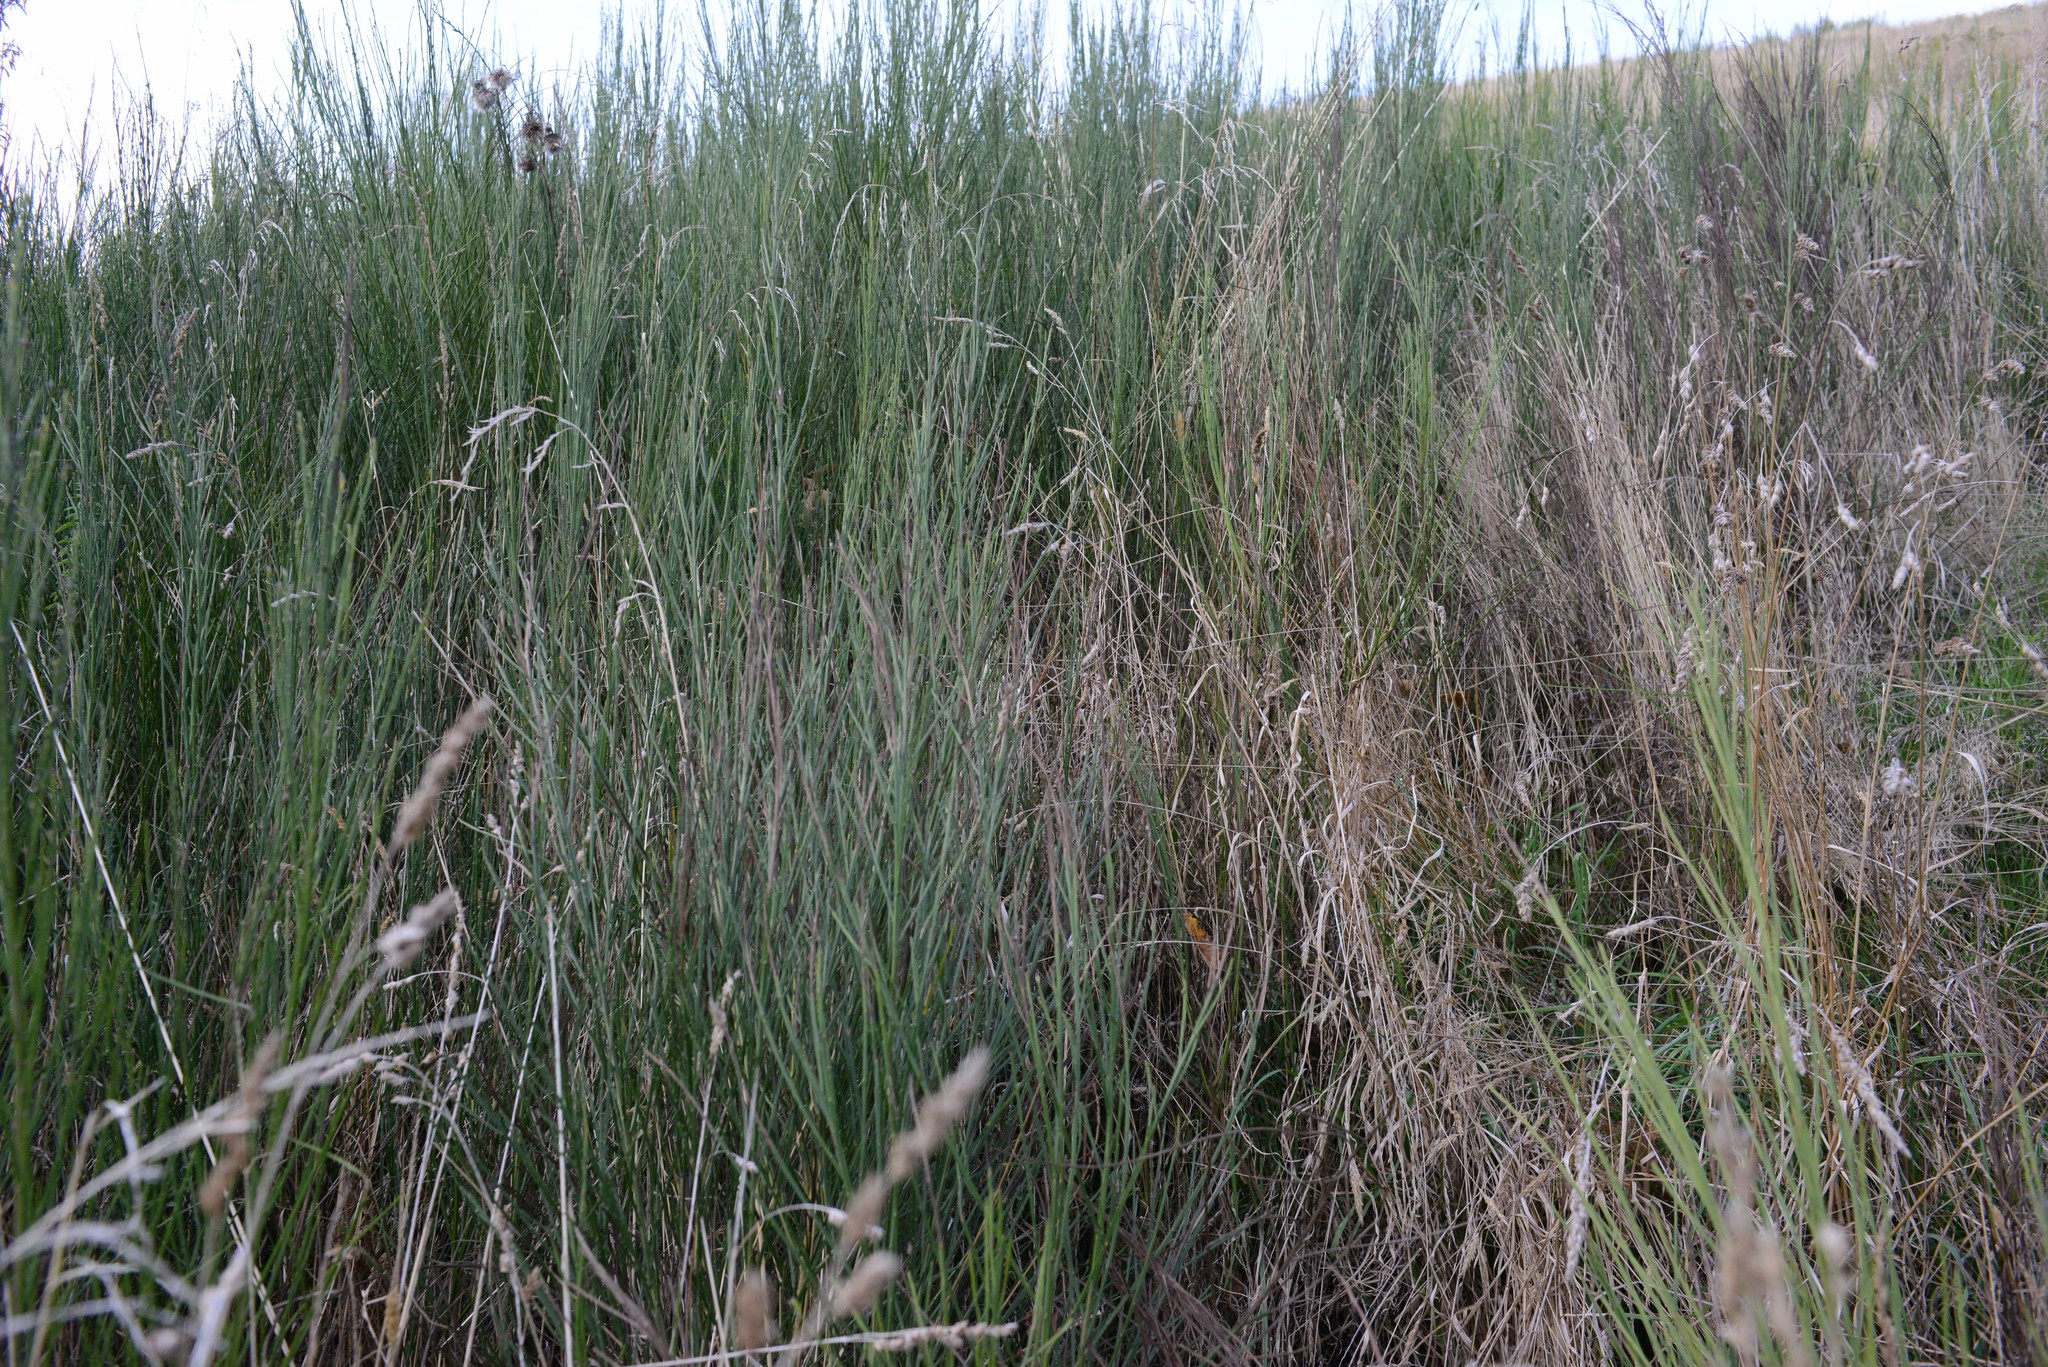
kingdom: Plantae
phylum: Tracheophyta
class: Magnoliopsida
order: Fabales
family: Fabaceae
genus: Cytisus
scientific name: Cytisus scoparius
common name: Scotch broom
